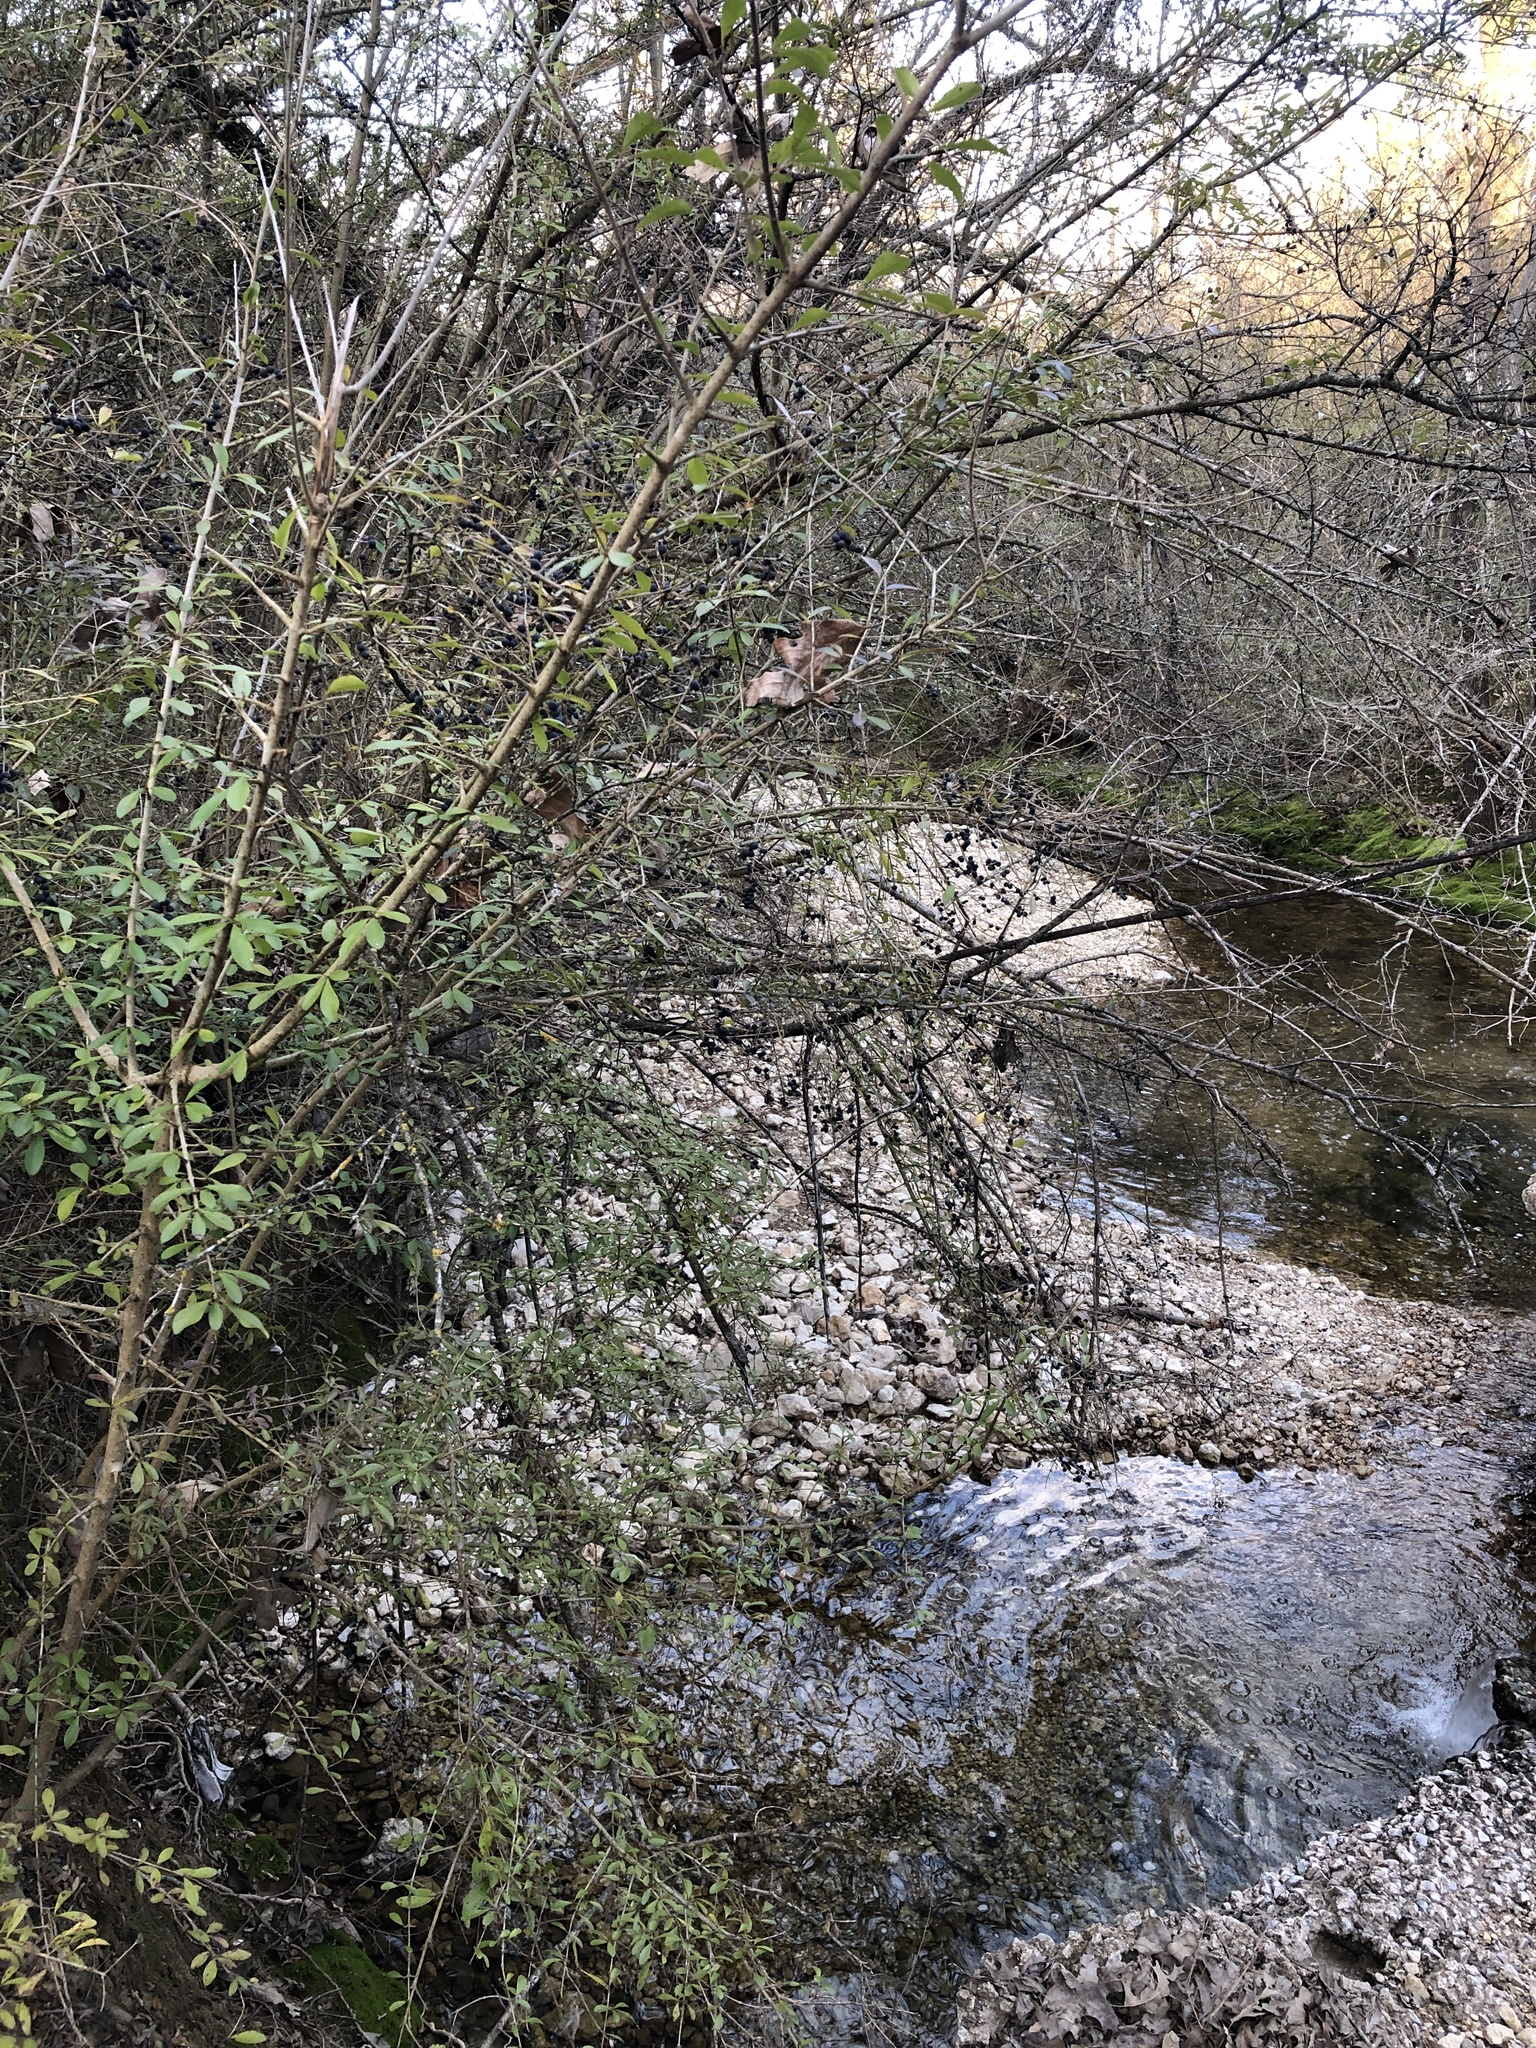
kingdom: Plantae
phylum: Tracheophyta
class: Magnoliopsida
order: Lamiales
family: Oleaceae
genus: Ligustrum
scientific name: Ligustrum quihoui
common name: Waxyleaf privet
